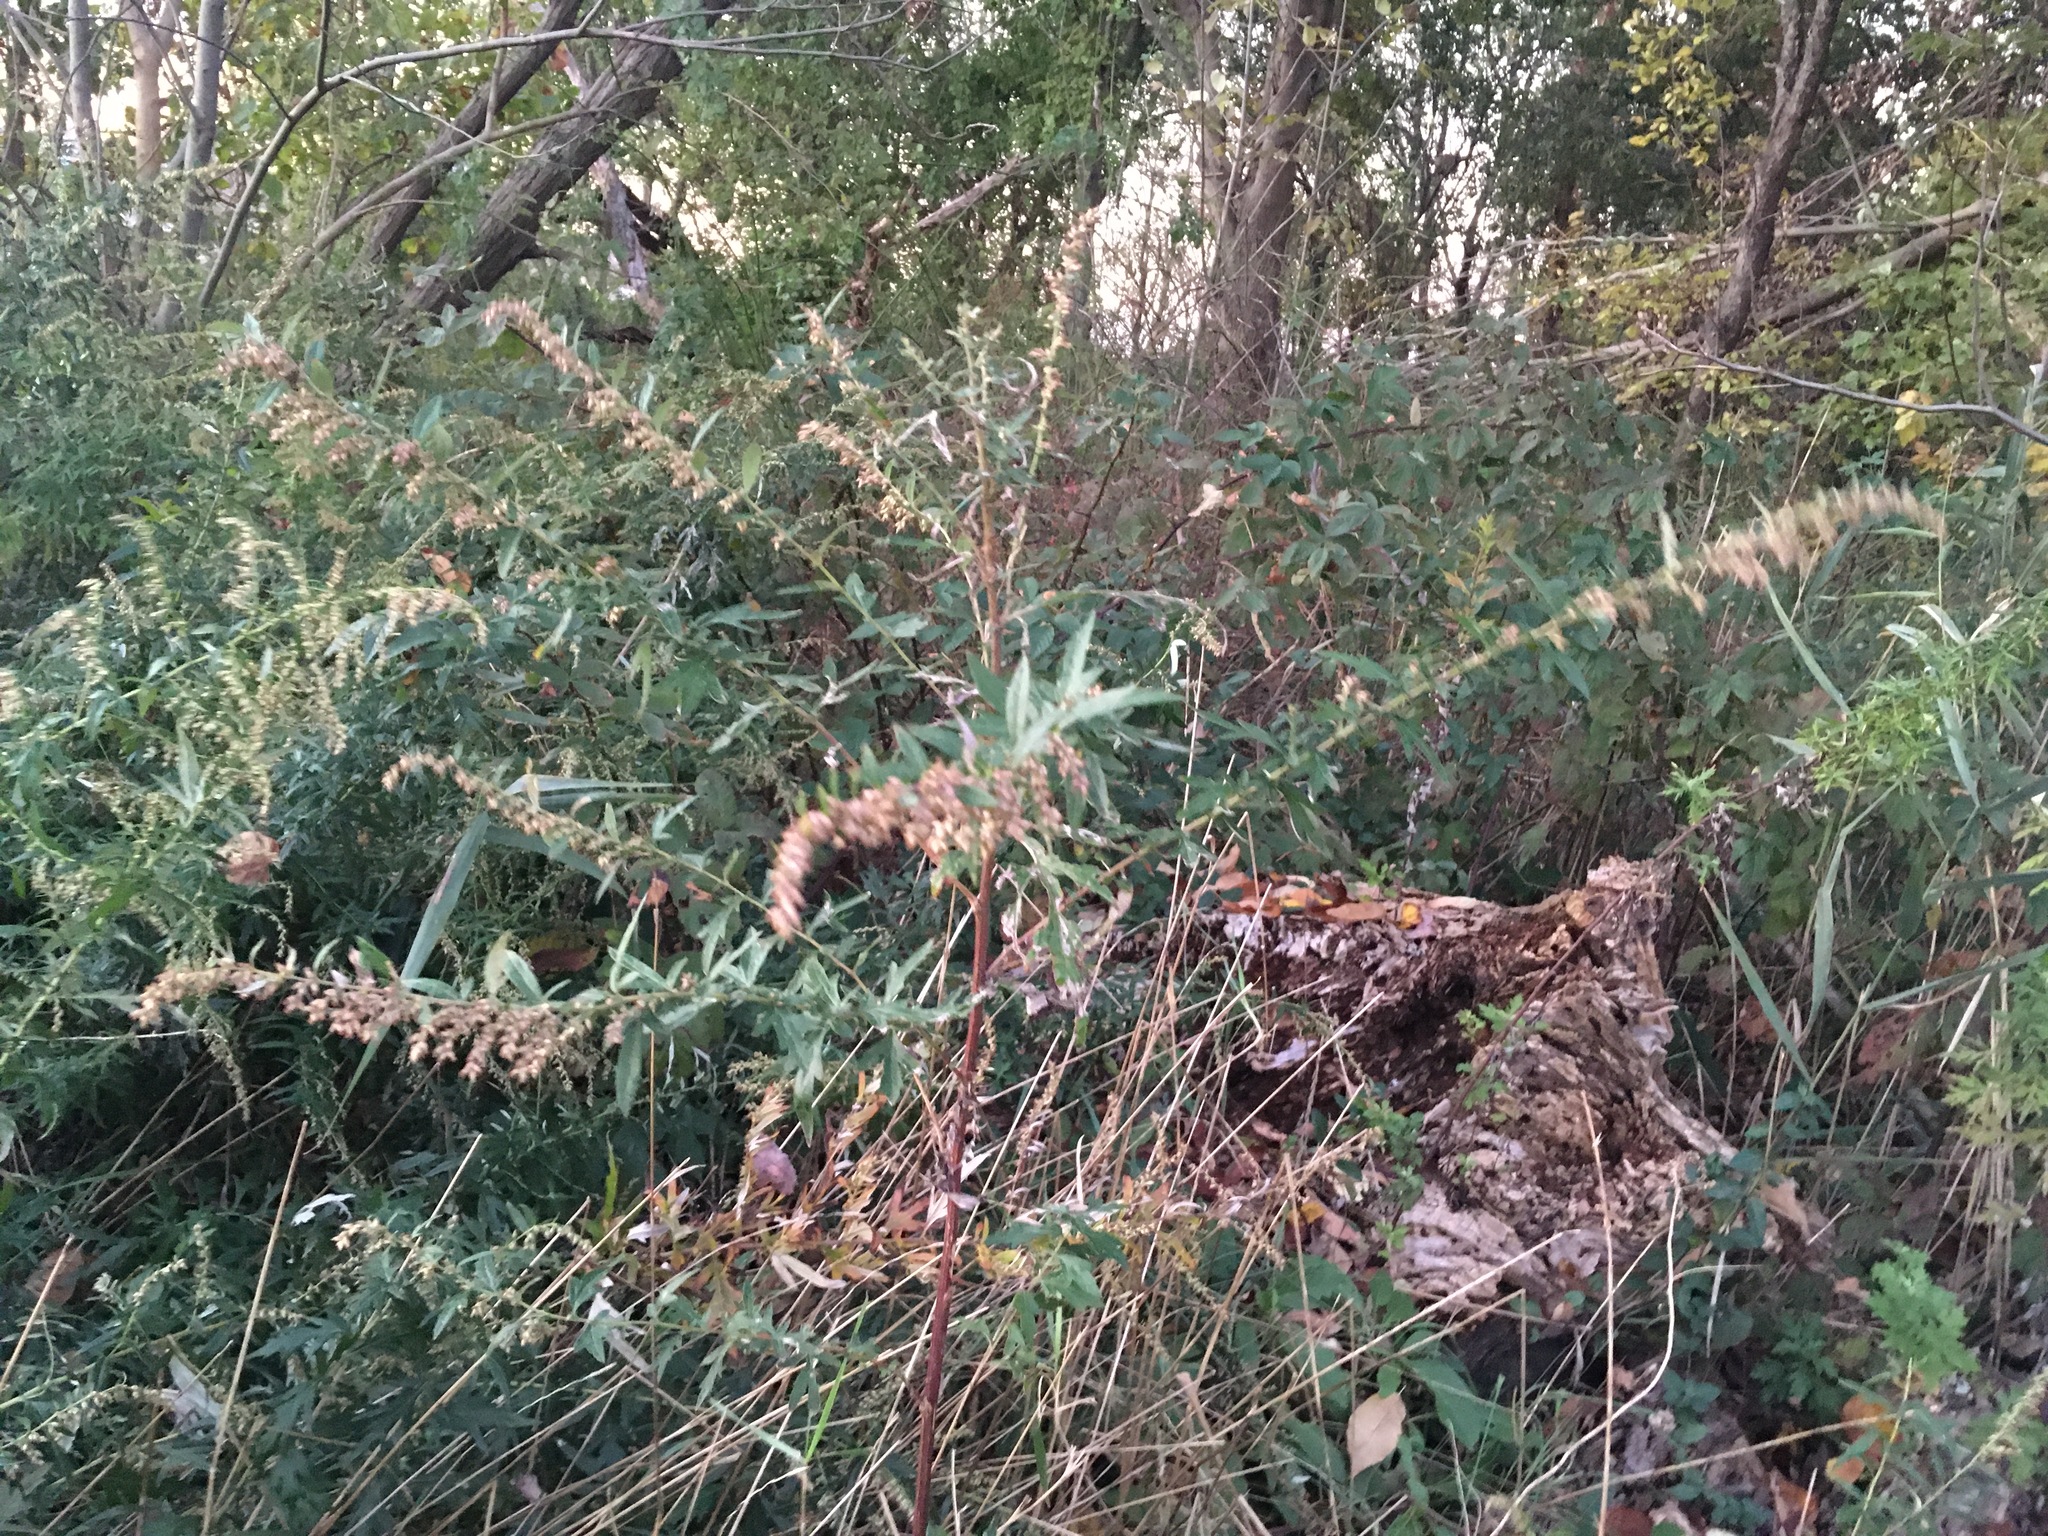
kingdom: Plantae
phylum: Tracheophyta
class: Magnoliopsida
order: Asterales
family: Asteraceae
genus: Artemisia
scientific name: Artemisia vulgaris
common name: Mugwort
